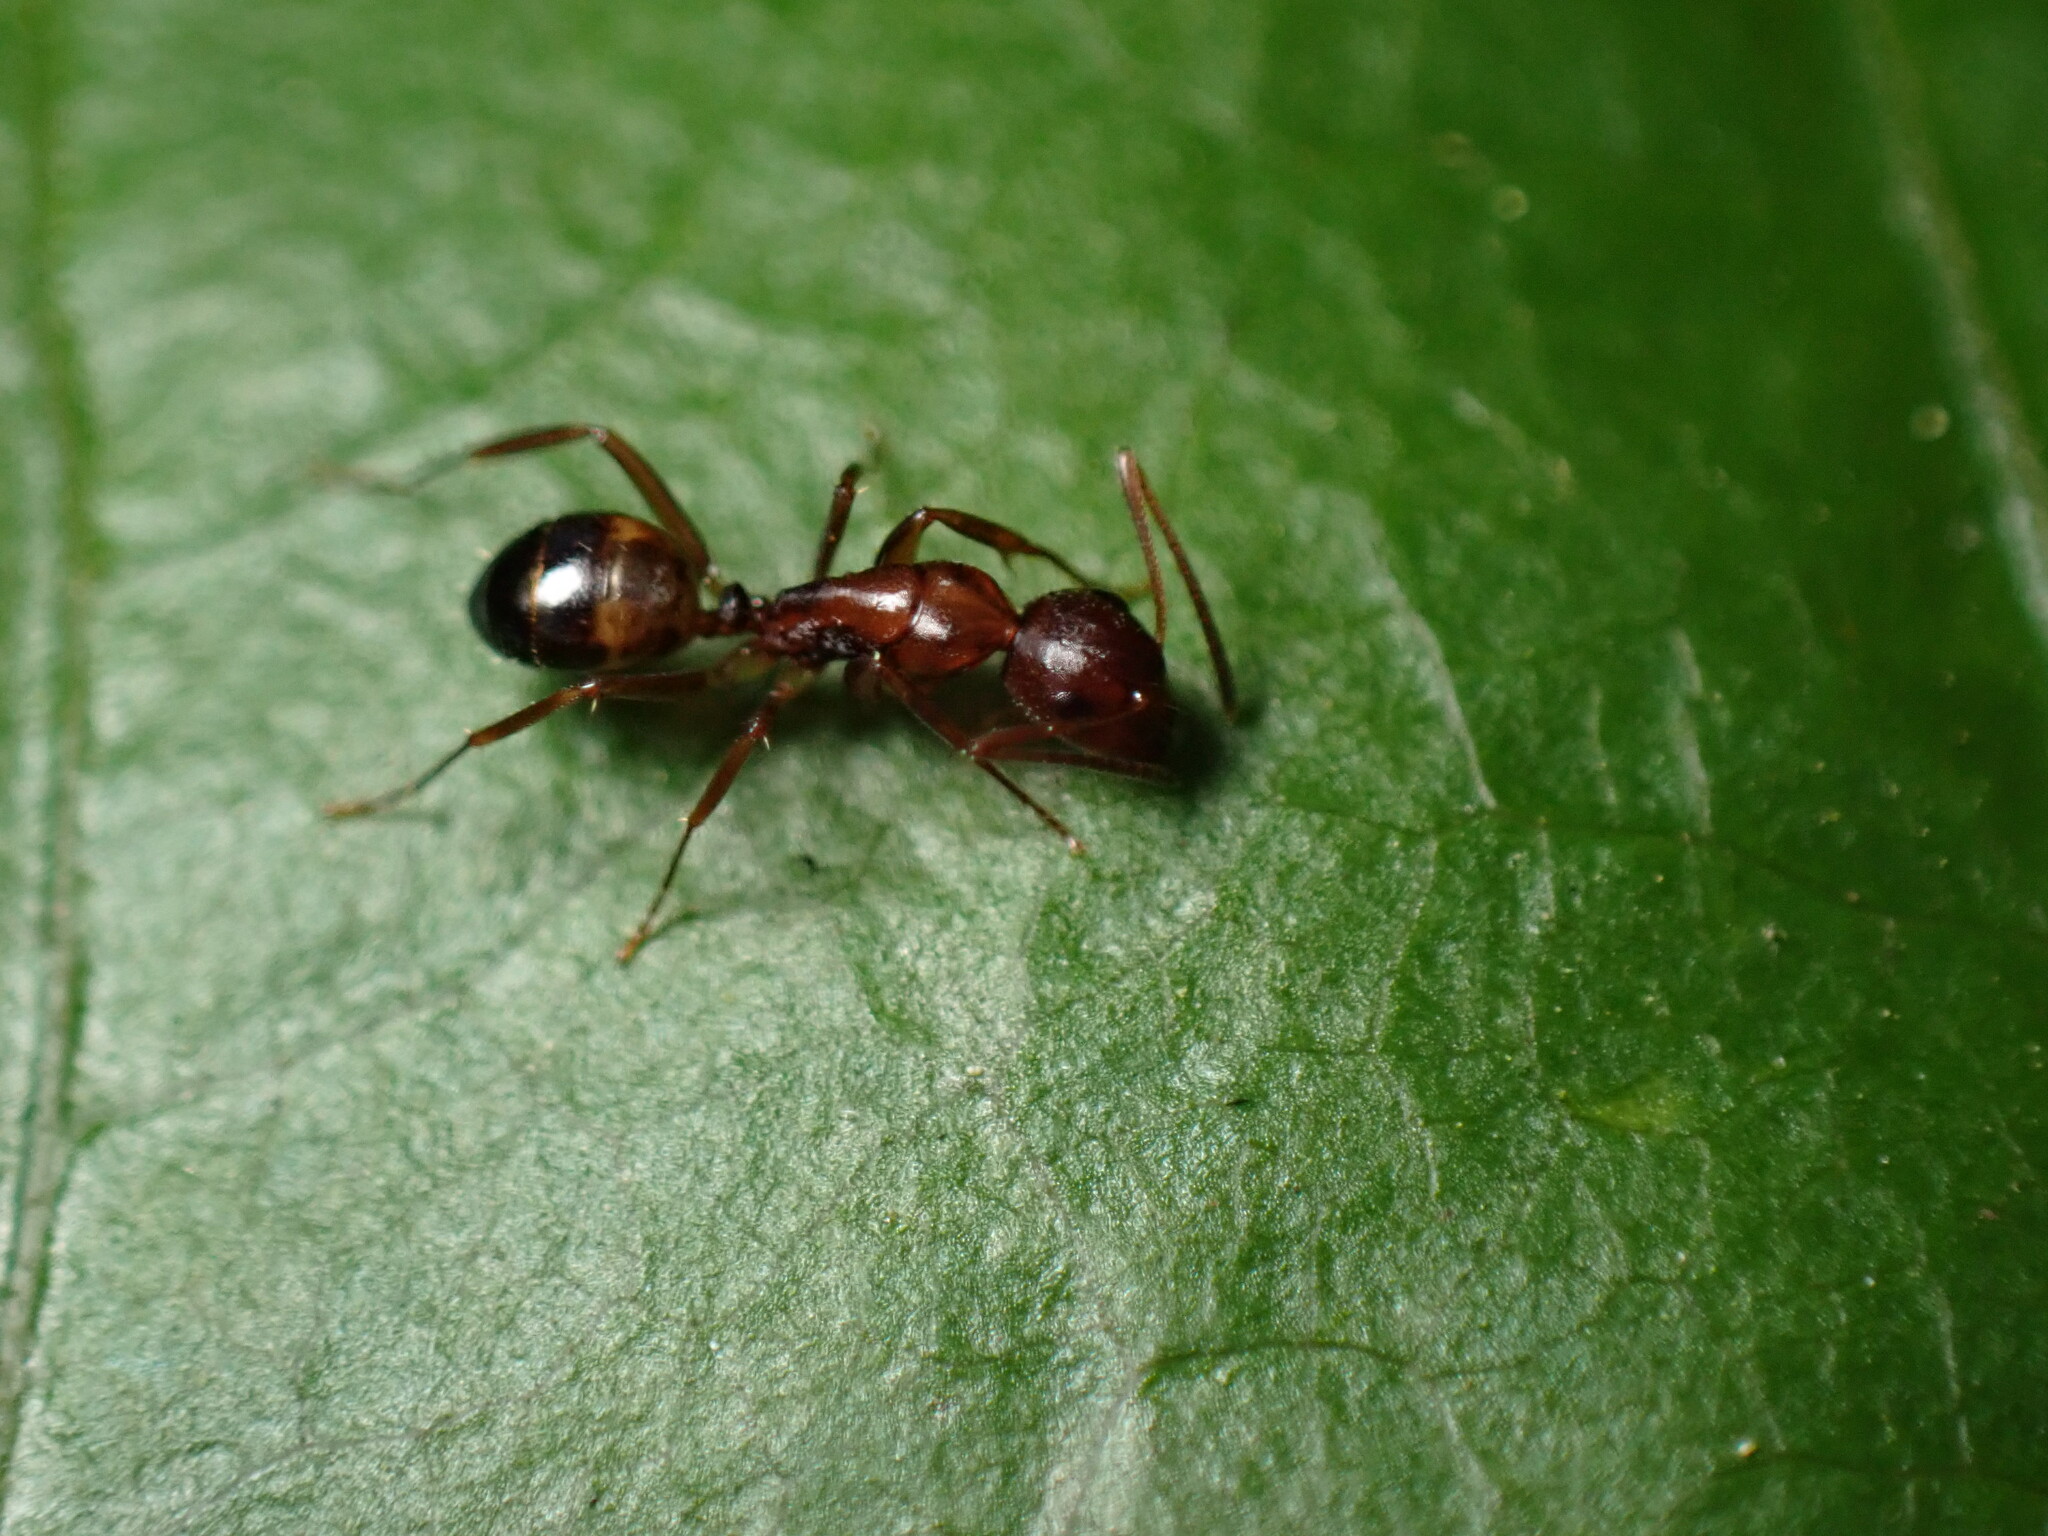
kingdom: Animalia
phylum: Arthropoda
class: Insecta
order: Hymenoptera
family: Formicidae
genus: Camponotus
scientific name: Camponotus subbarbatus
